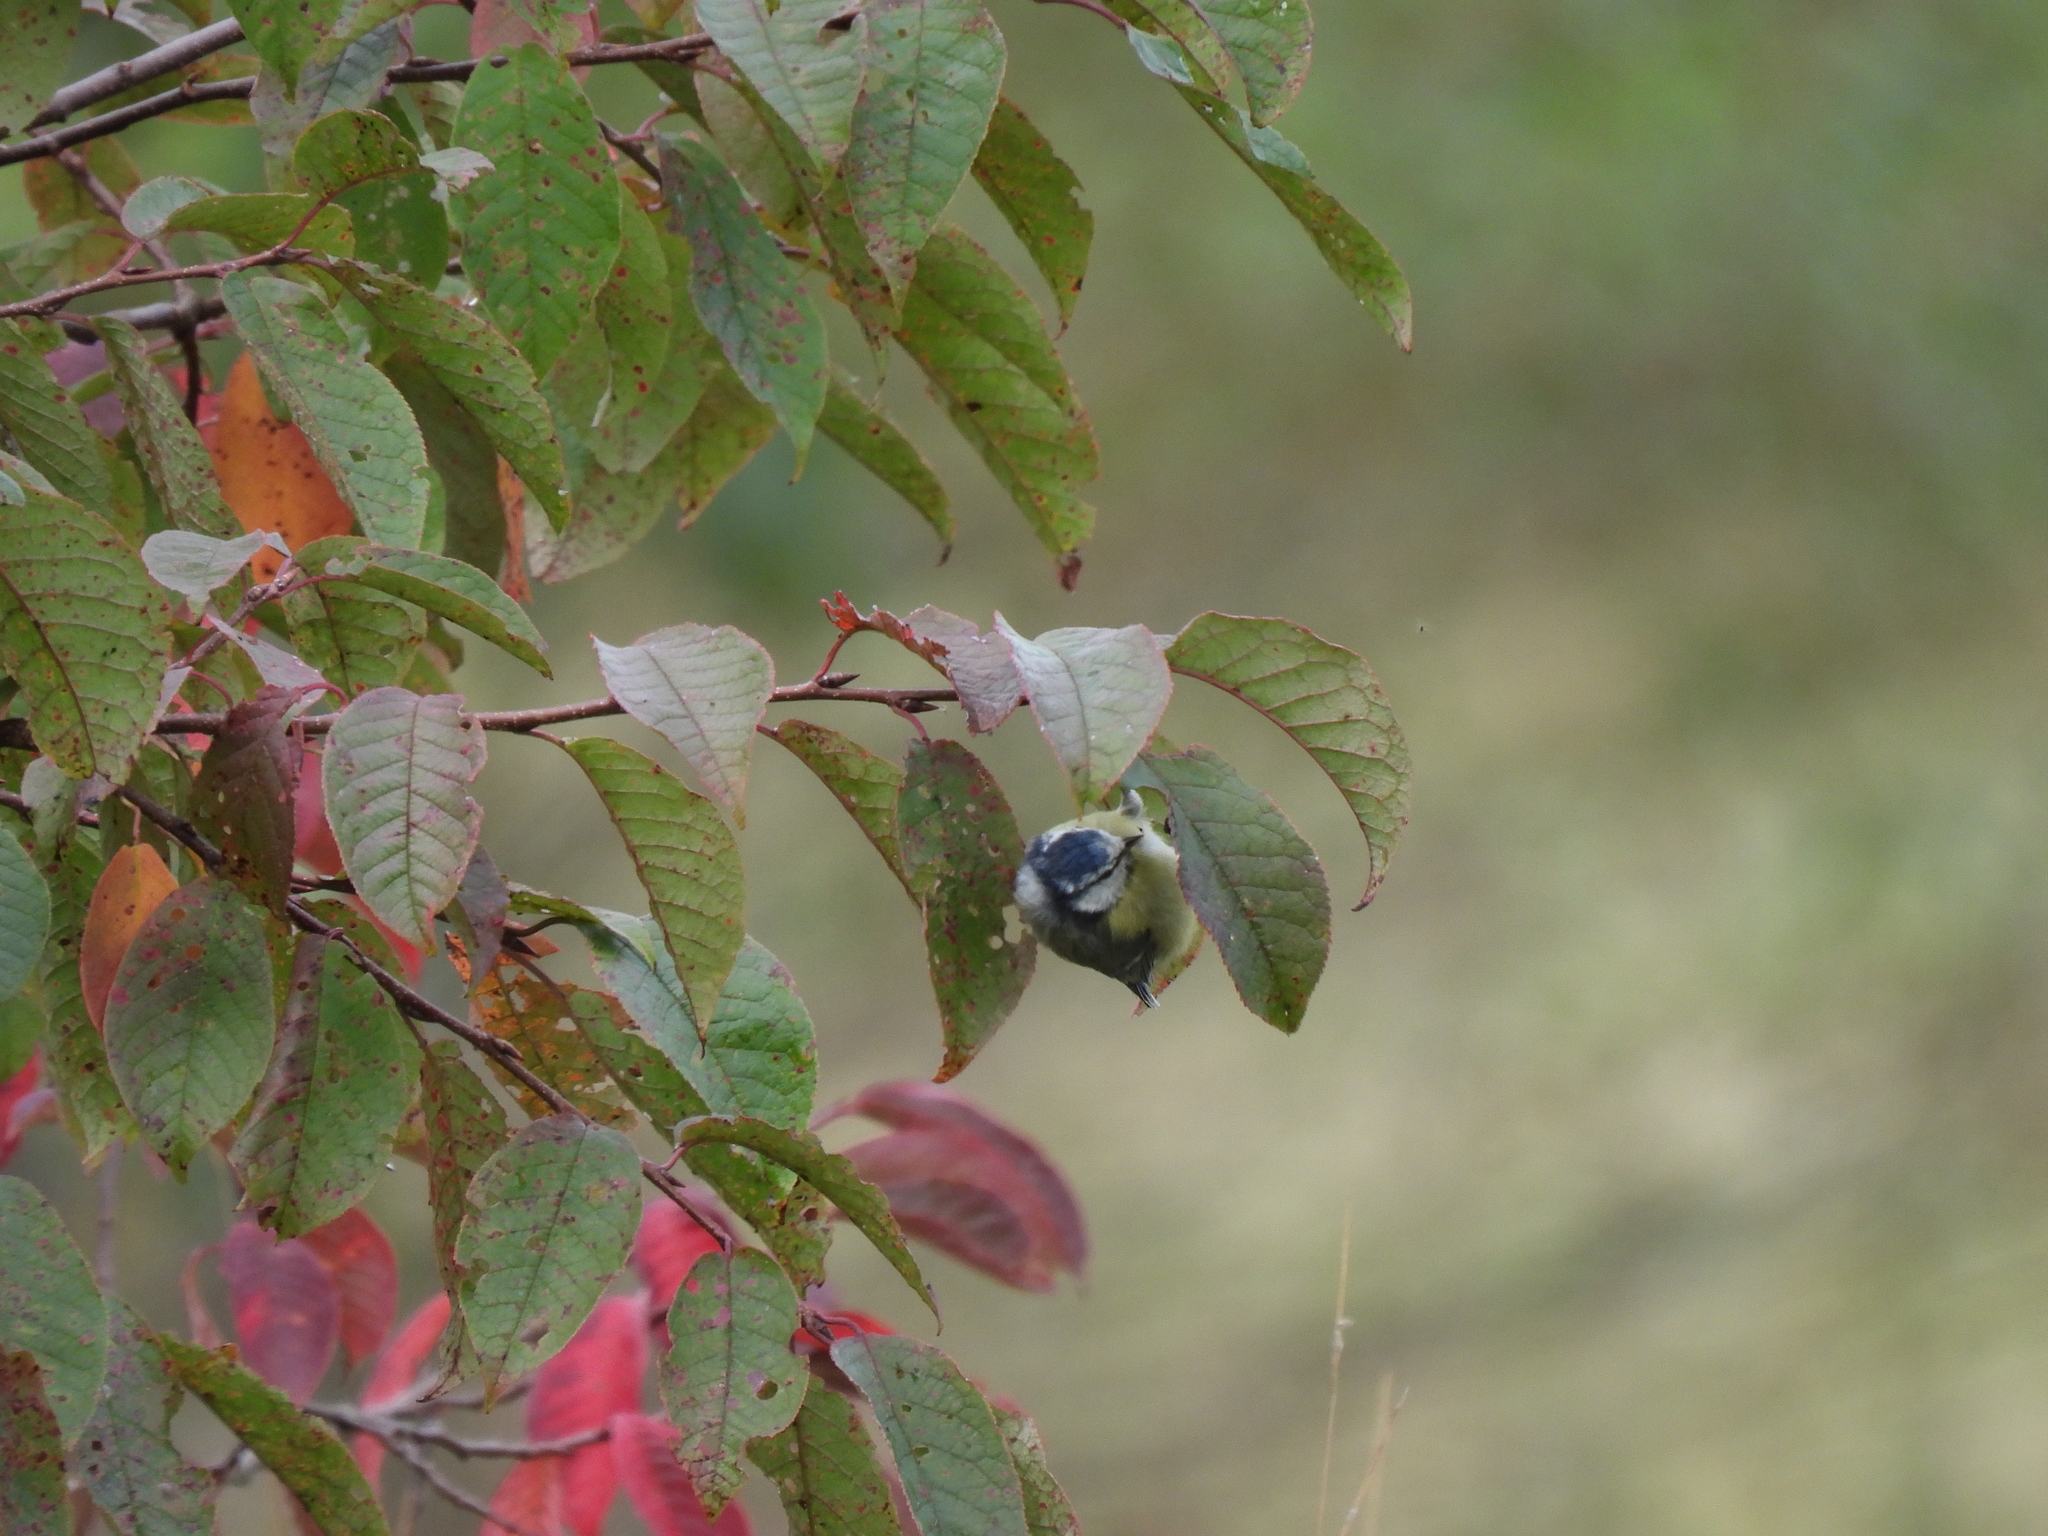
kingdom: Animalia
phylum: Chordata
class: Aves
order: Passeriformes
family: Paridae
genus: Cyanistes
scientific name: Cyanistes caeruleus
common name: Eurasian blue tit
